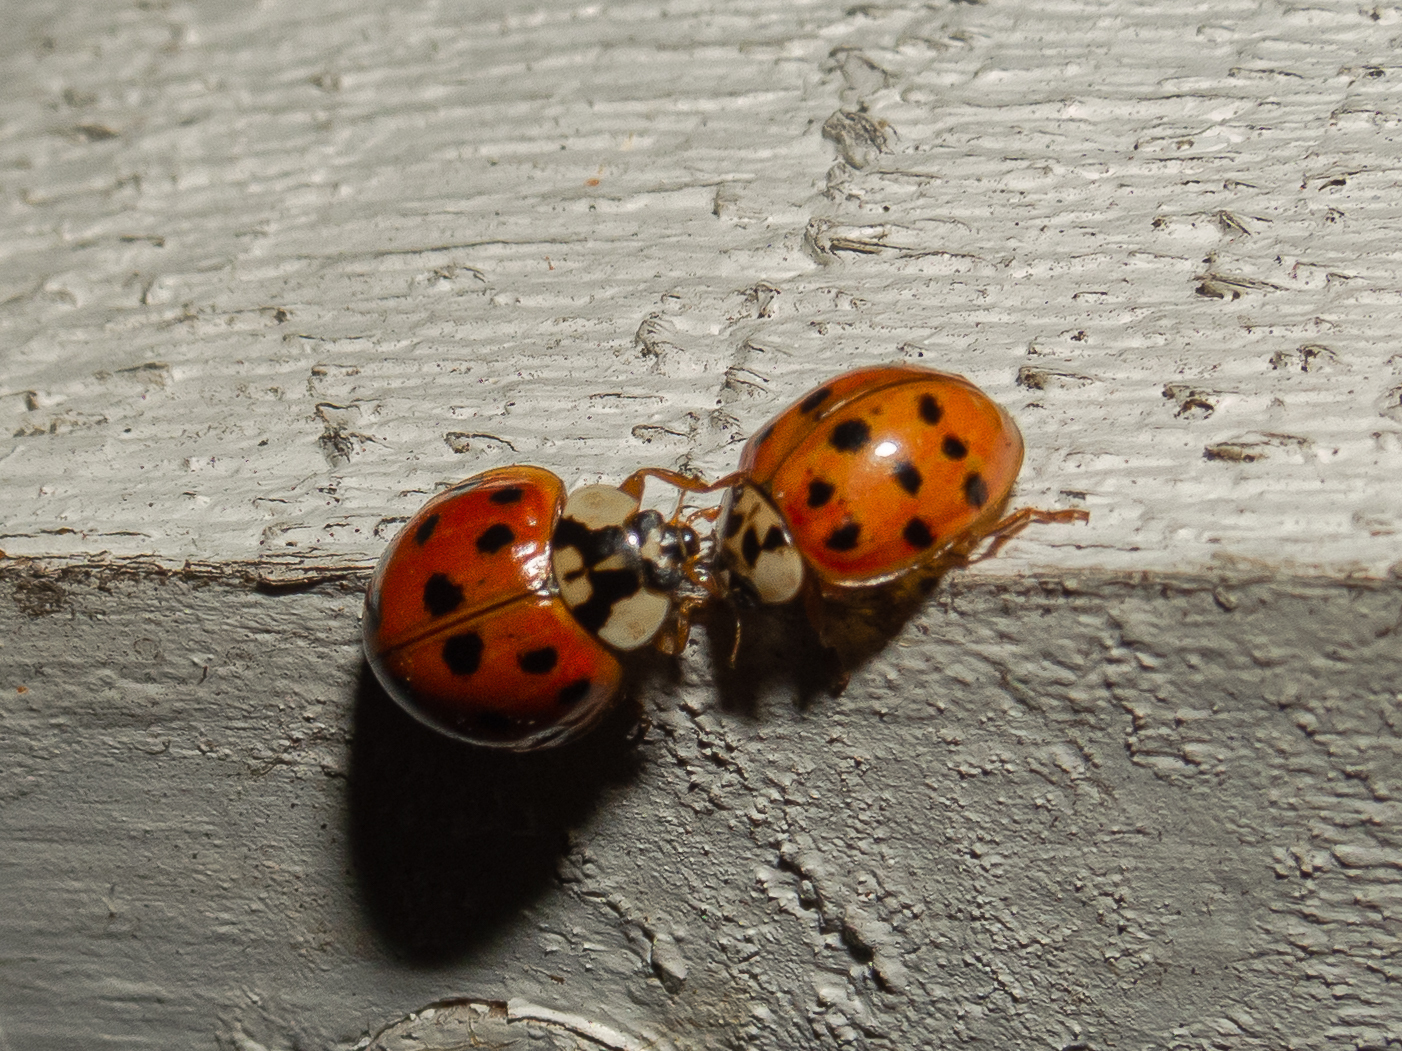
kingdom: Animalia
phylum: Arthropoda
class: Insecta
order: Coleoptera
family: Coccinellidae
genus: Harmonia
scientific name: Harmonia axyridis
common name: Harlequin ladybird
